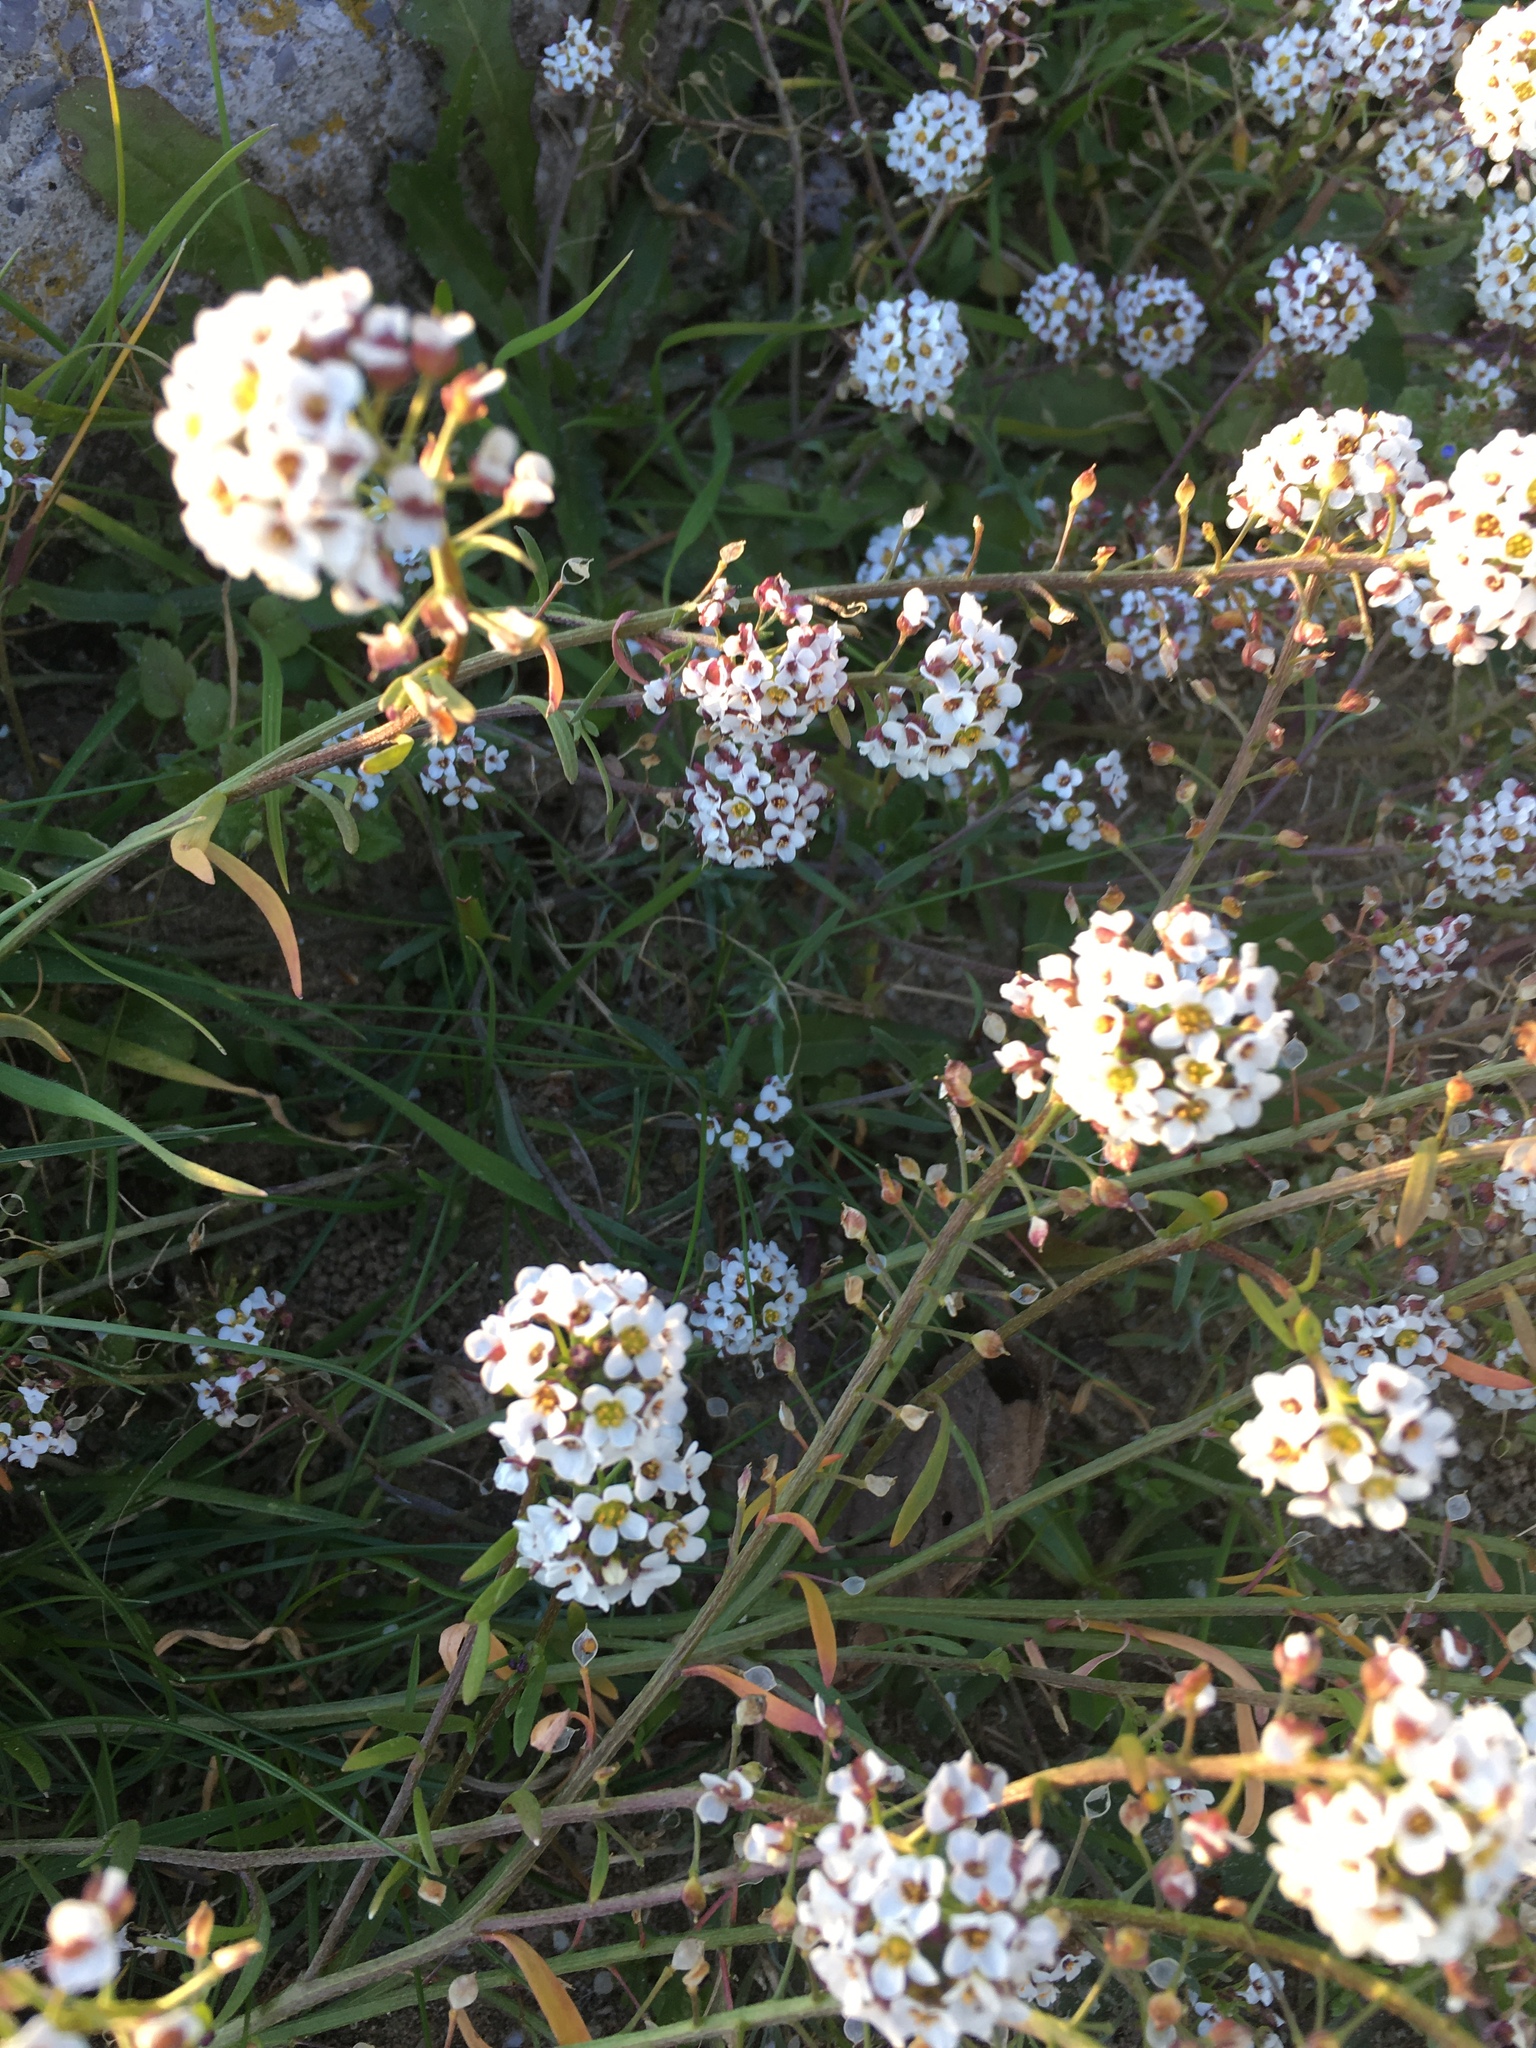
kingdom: Plantae
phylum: Tracheophyta
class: Magnoliopsida
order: Brassicales
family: Brassicaceae
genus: Lobularia
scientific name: Lobularia maritima
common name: Sweet alison
